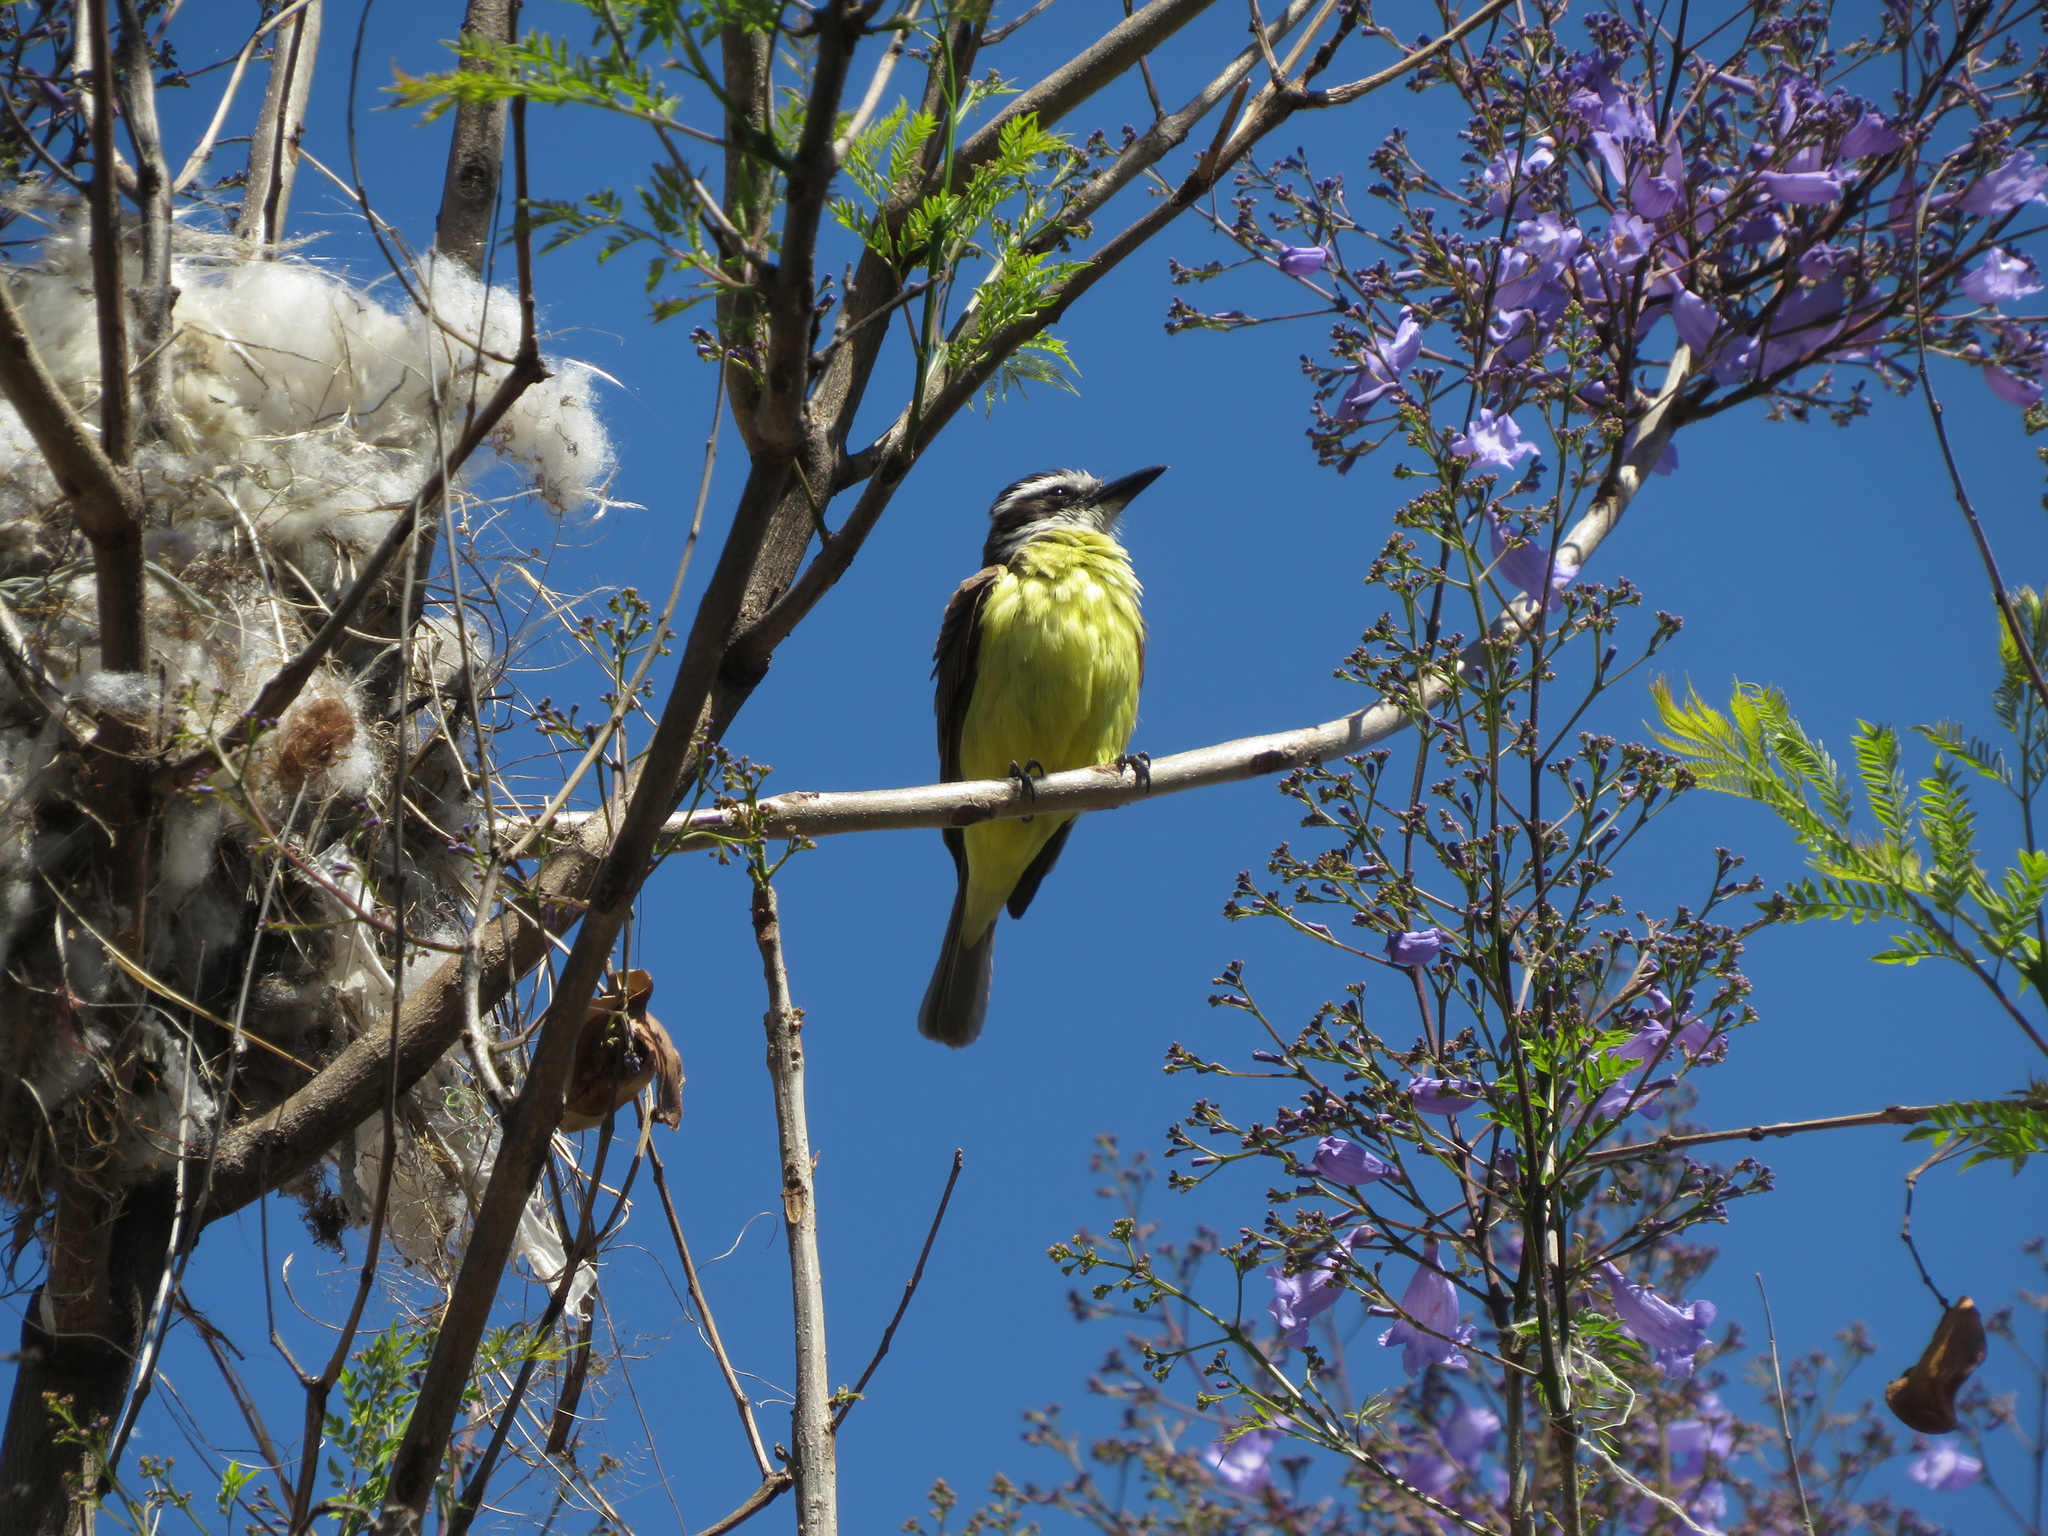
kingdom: Animalia
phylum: Chordata
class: Aves
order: Passeriformes
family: Tyrannidae
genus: Pitangus
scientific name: Pitangus sulphuratus
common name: Great kiskadee
